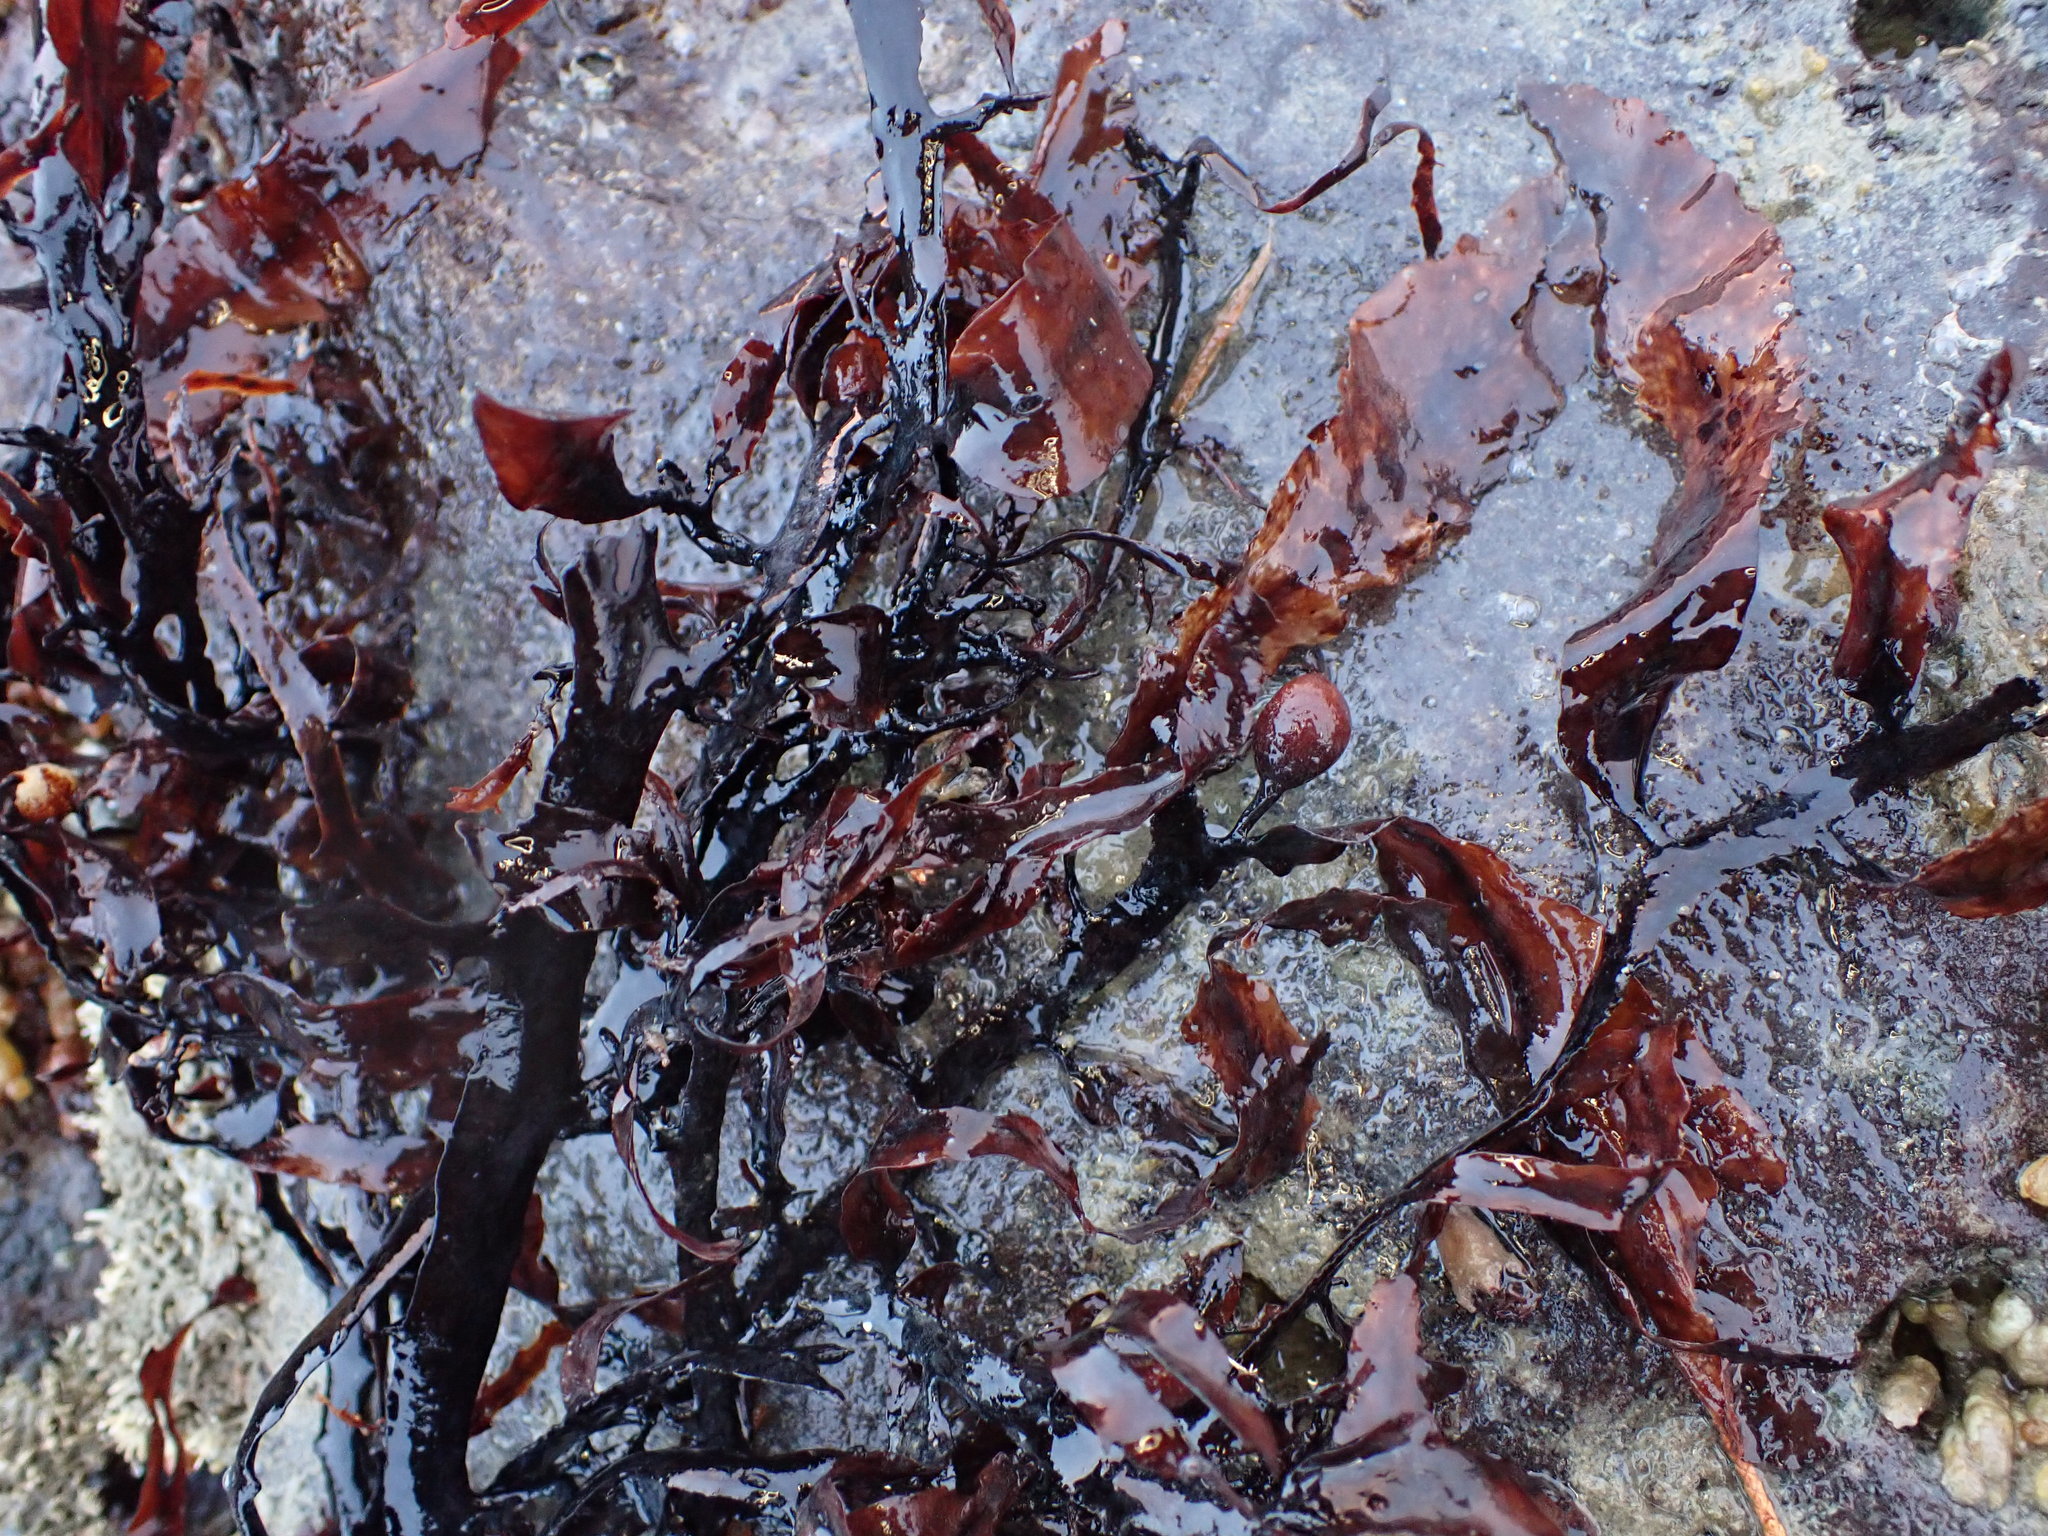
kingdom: Chromista
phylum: Ochrophyta
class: Phaeophyceae
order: Fucales
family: Sargassaceae
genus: Carpophyllum
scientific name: Carpophyllum flexuosum
